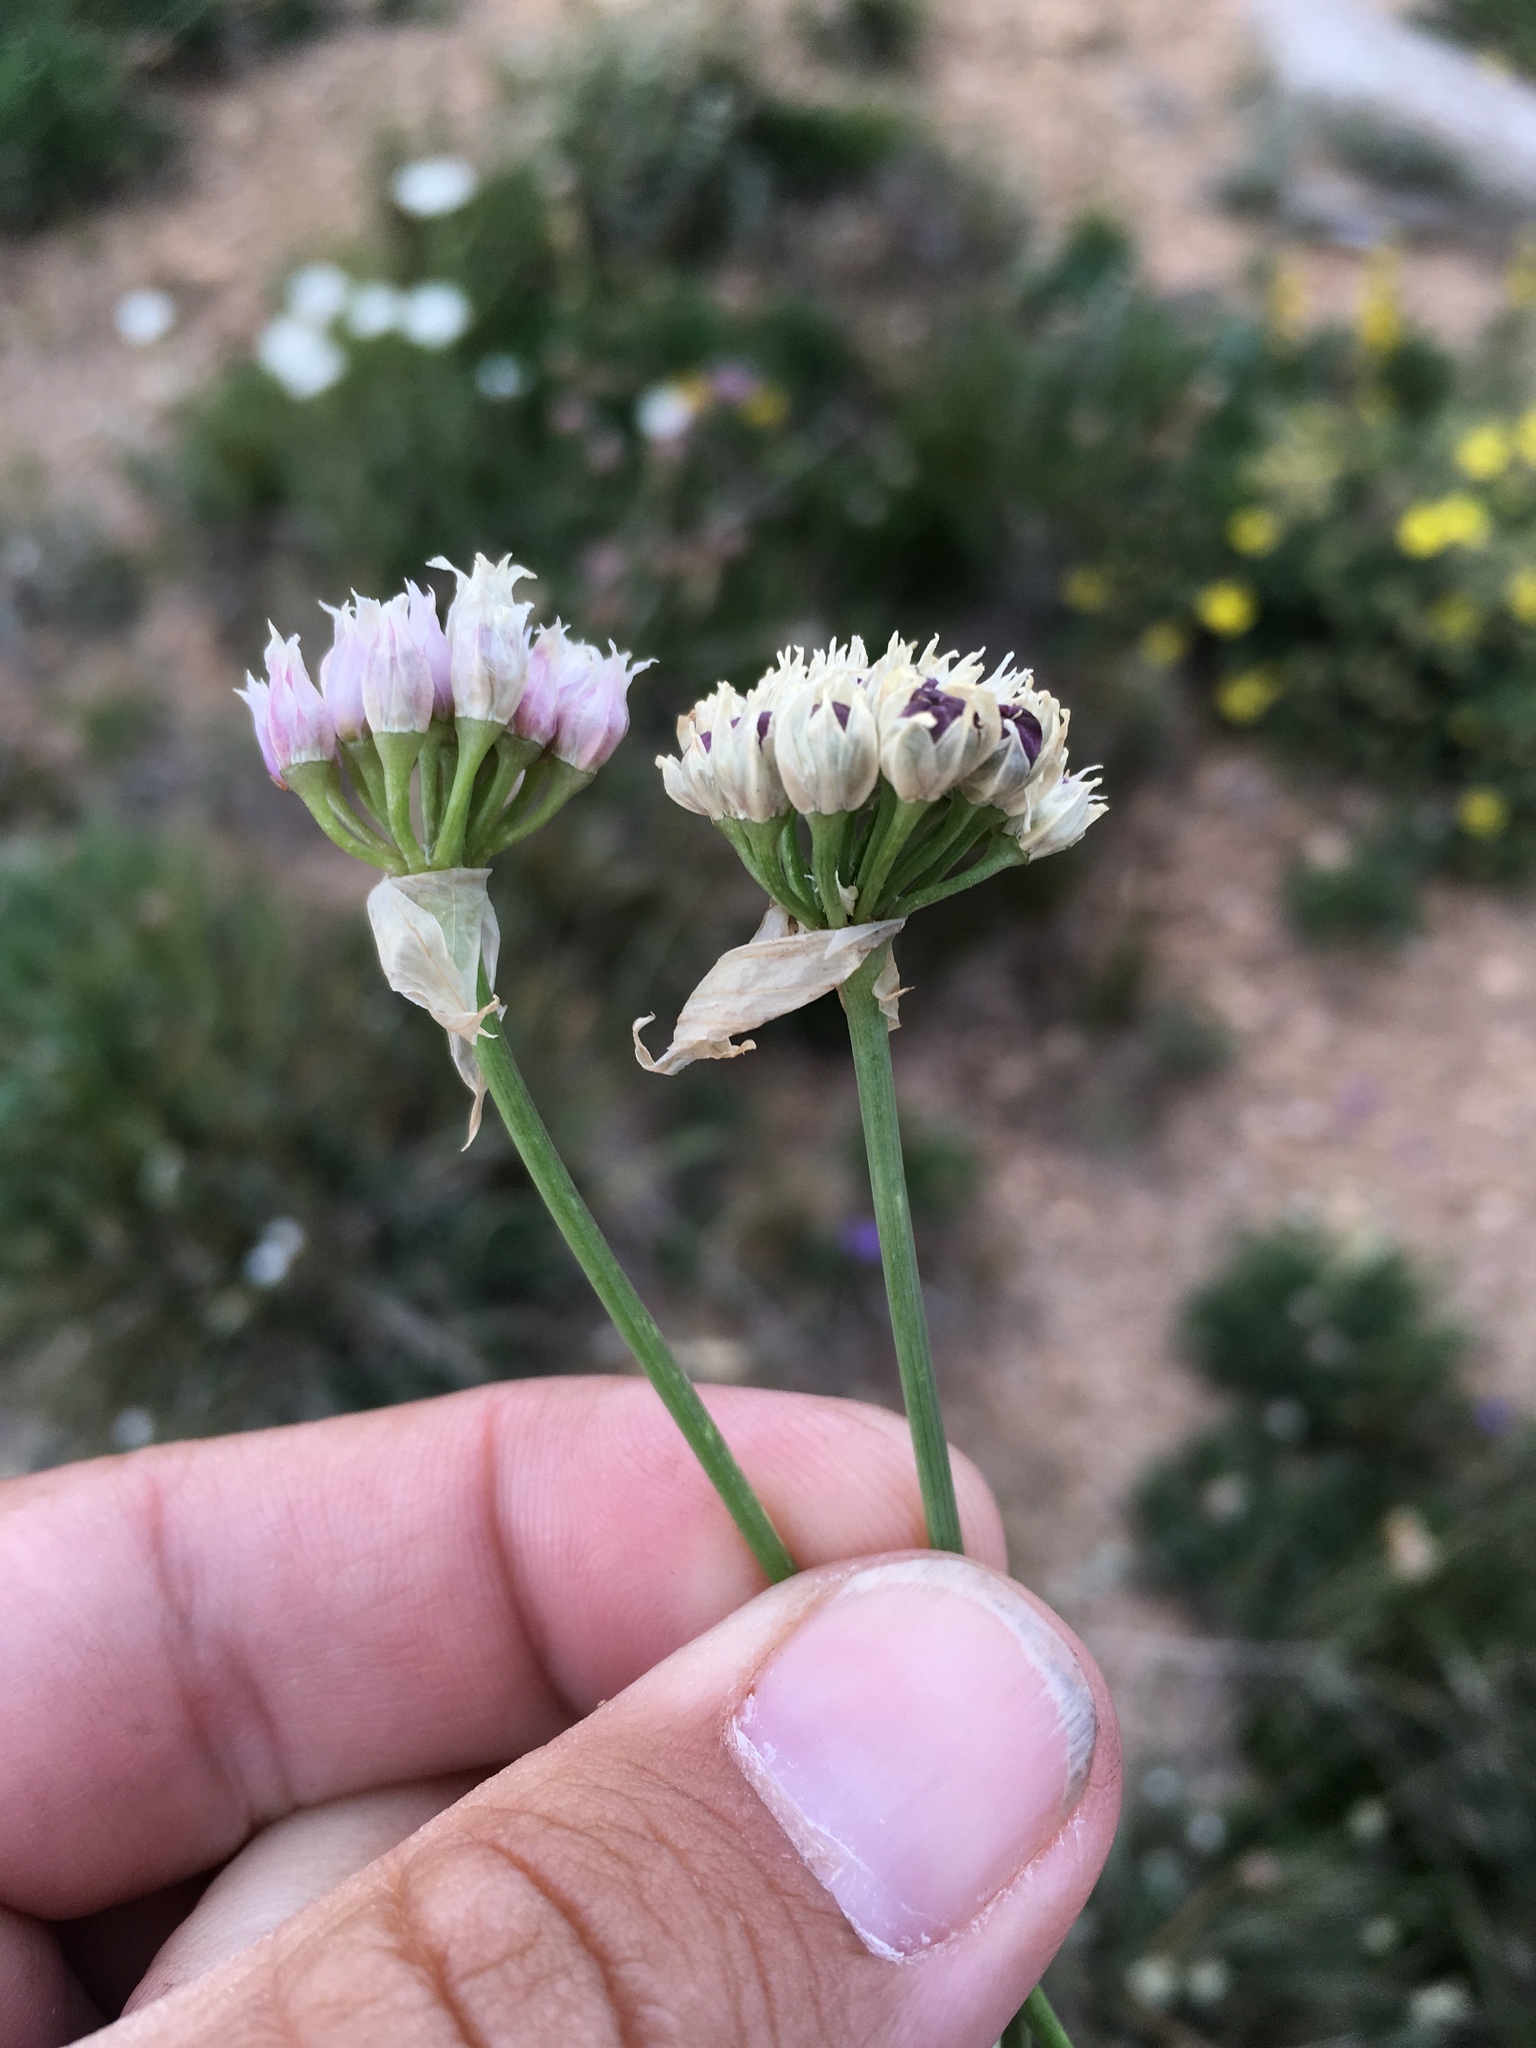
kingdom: Plantae
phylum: Tracheophyta
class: Liliopsida
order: Asparagales
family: Amaryllidaceae
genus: Allium
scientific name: Allium geyeri
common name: Geyer's onion
